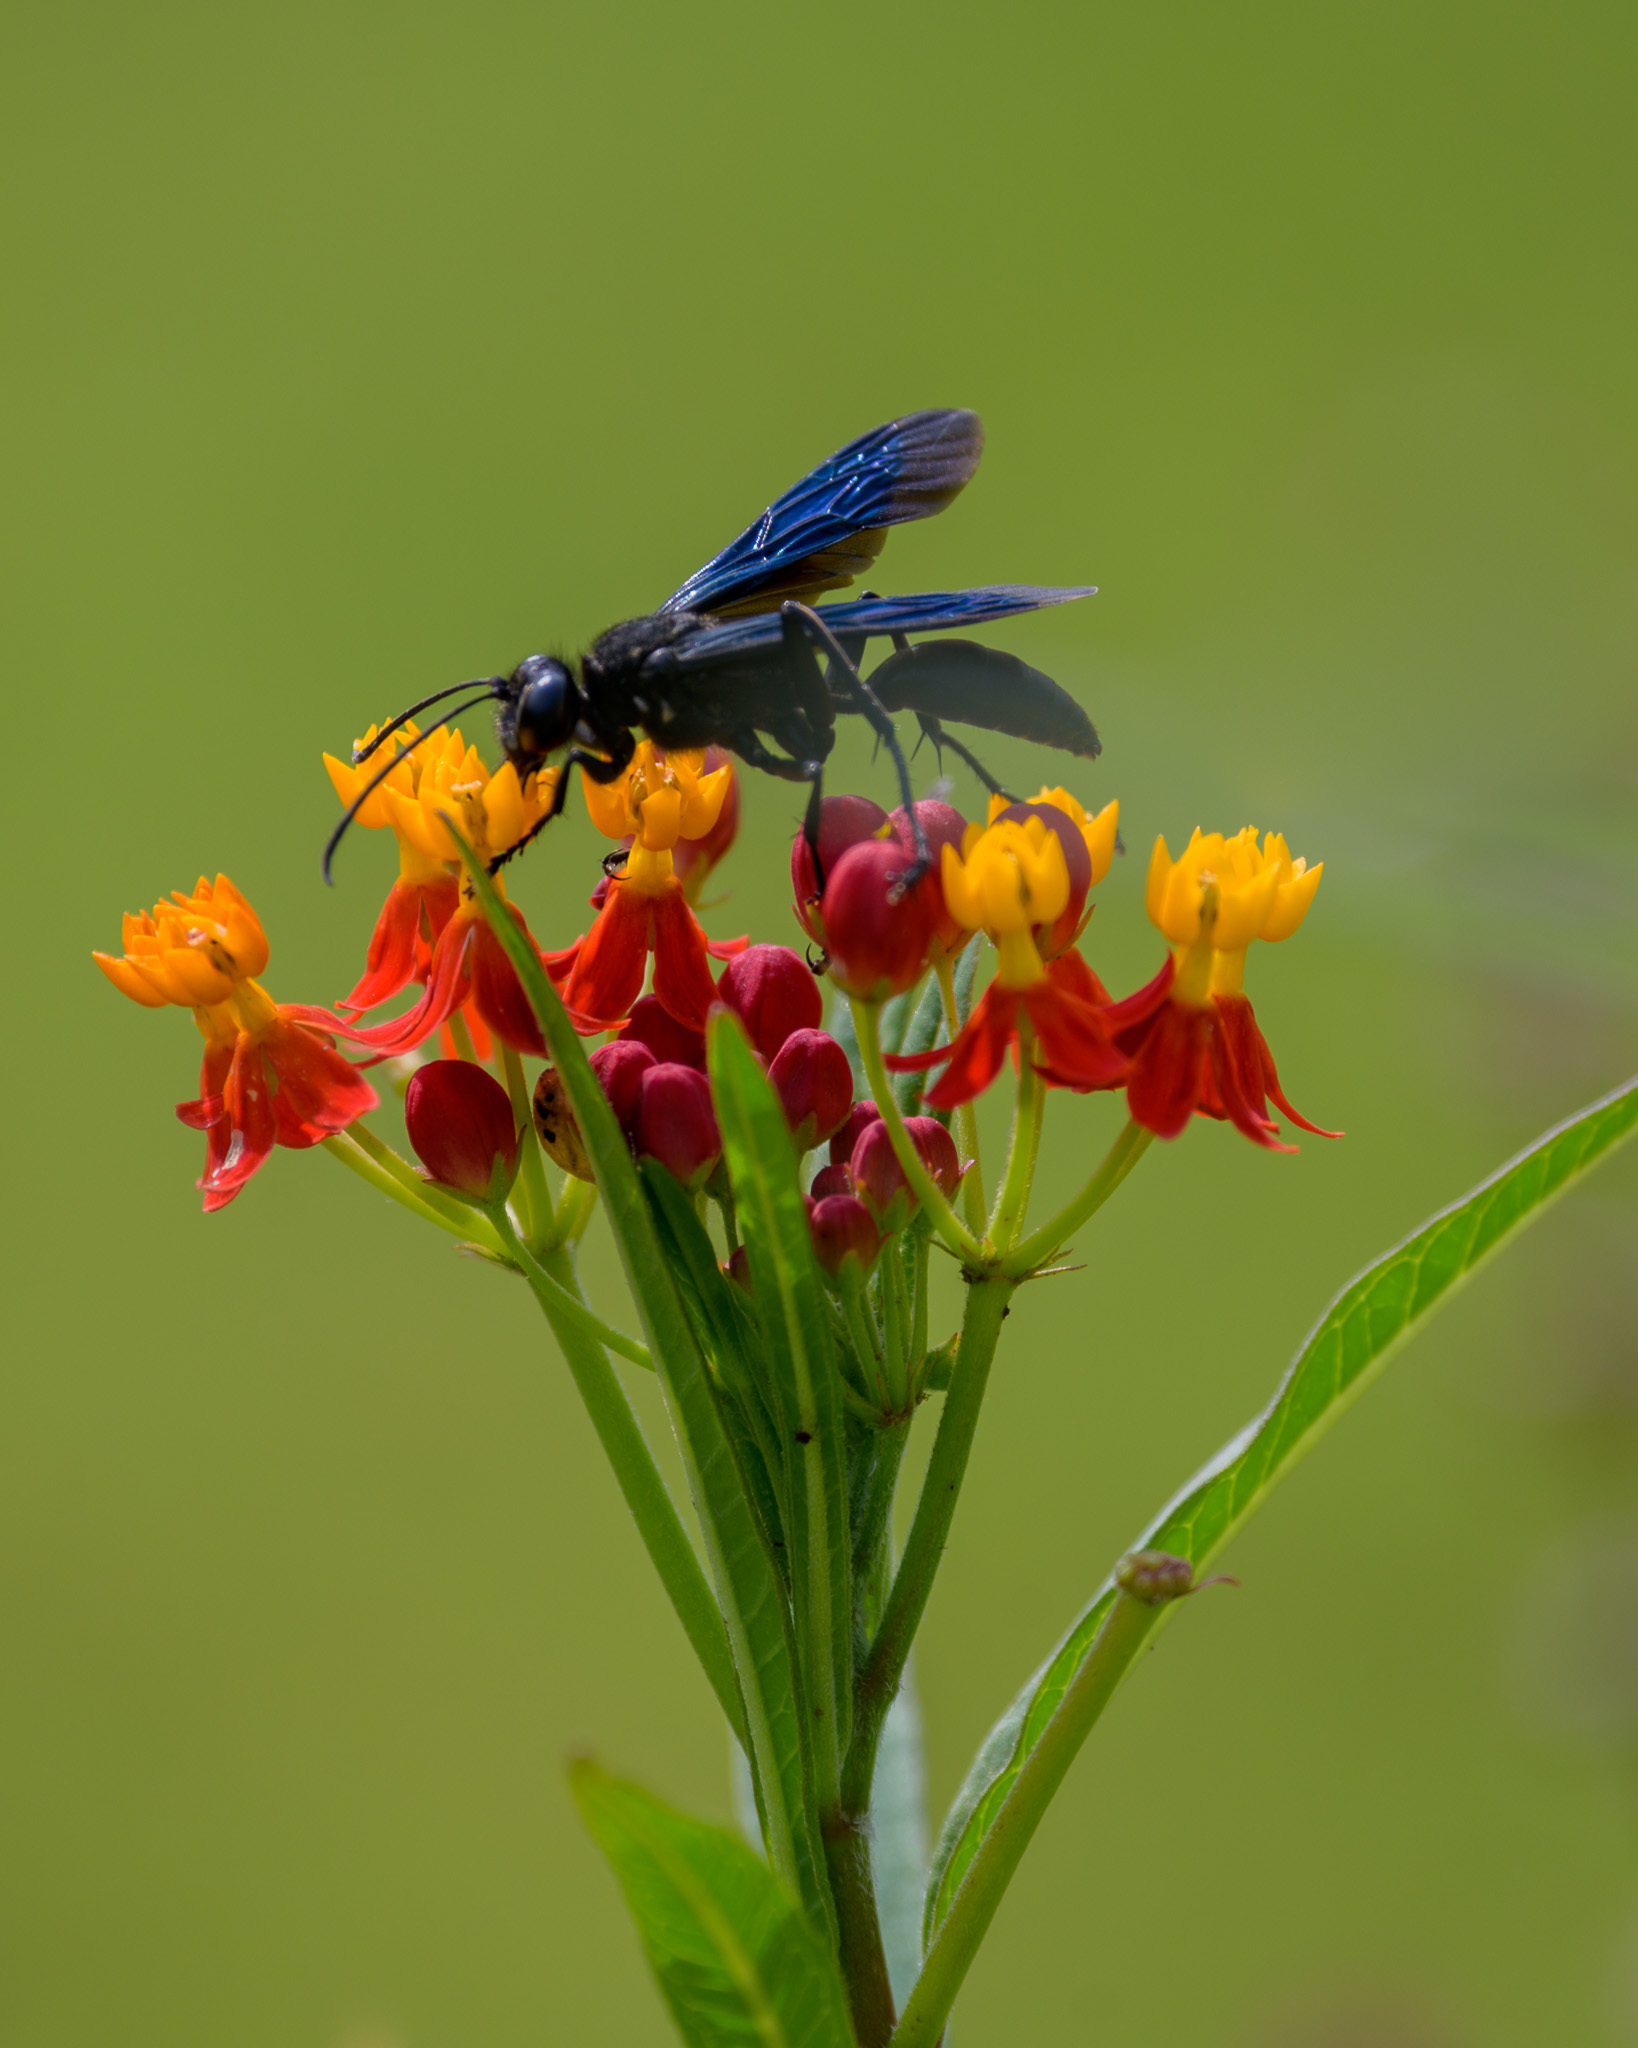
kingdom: Animalia
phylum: Arthropoda
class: Insecta
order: Hymenoptera
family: Sphecidae
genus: Sphex
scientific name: Sphex pensylvanicus
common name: Great black digger wasp
